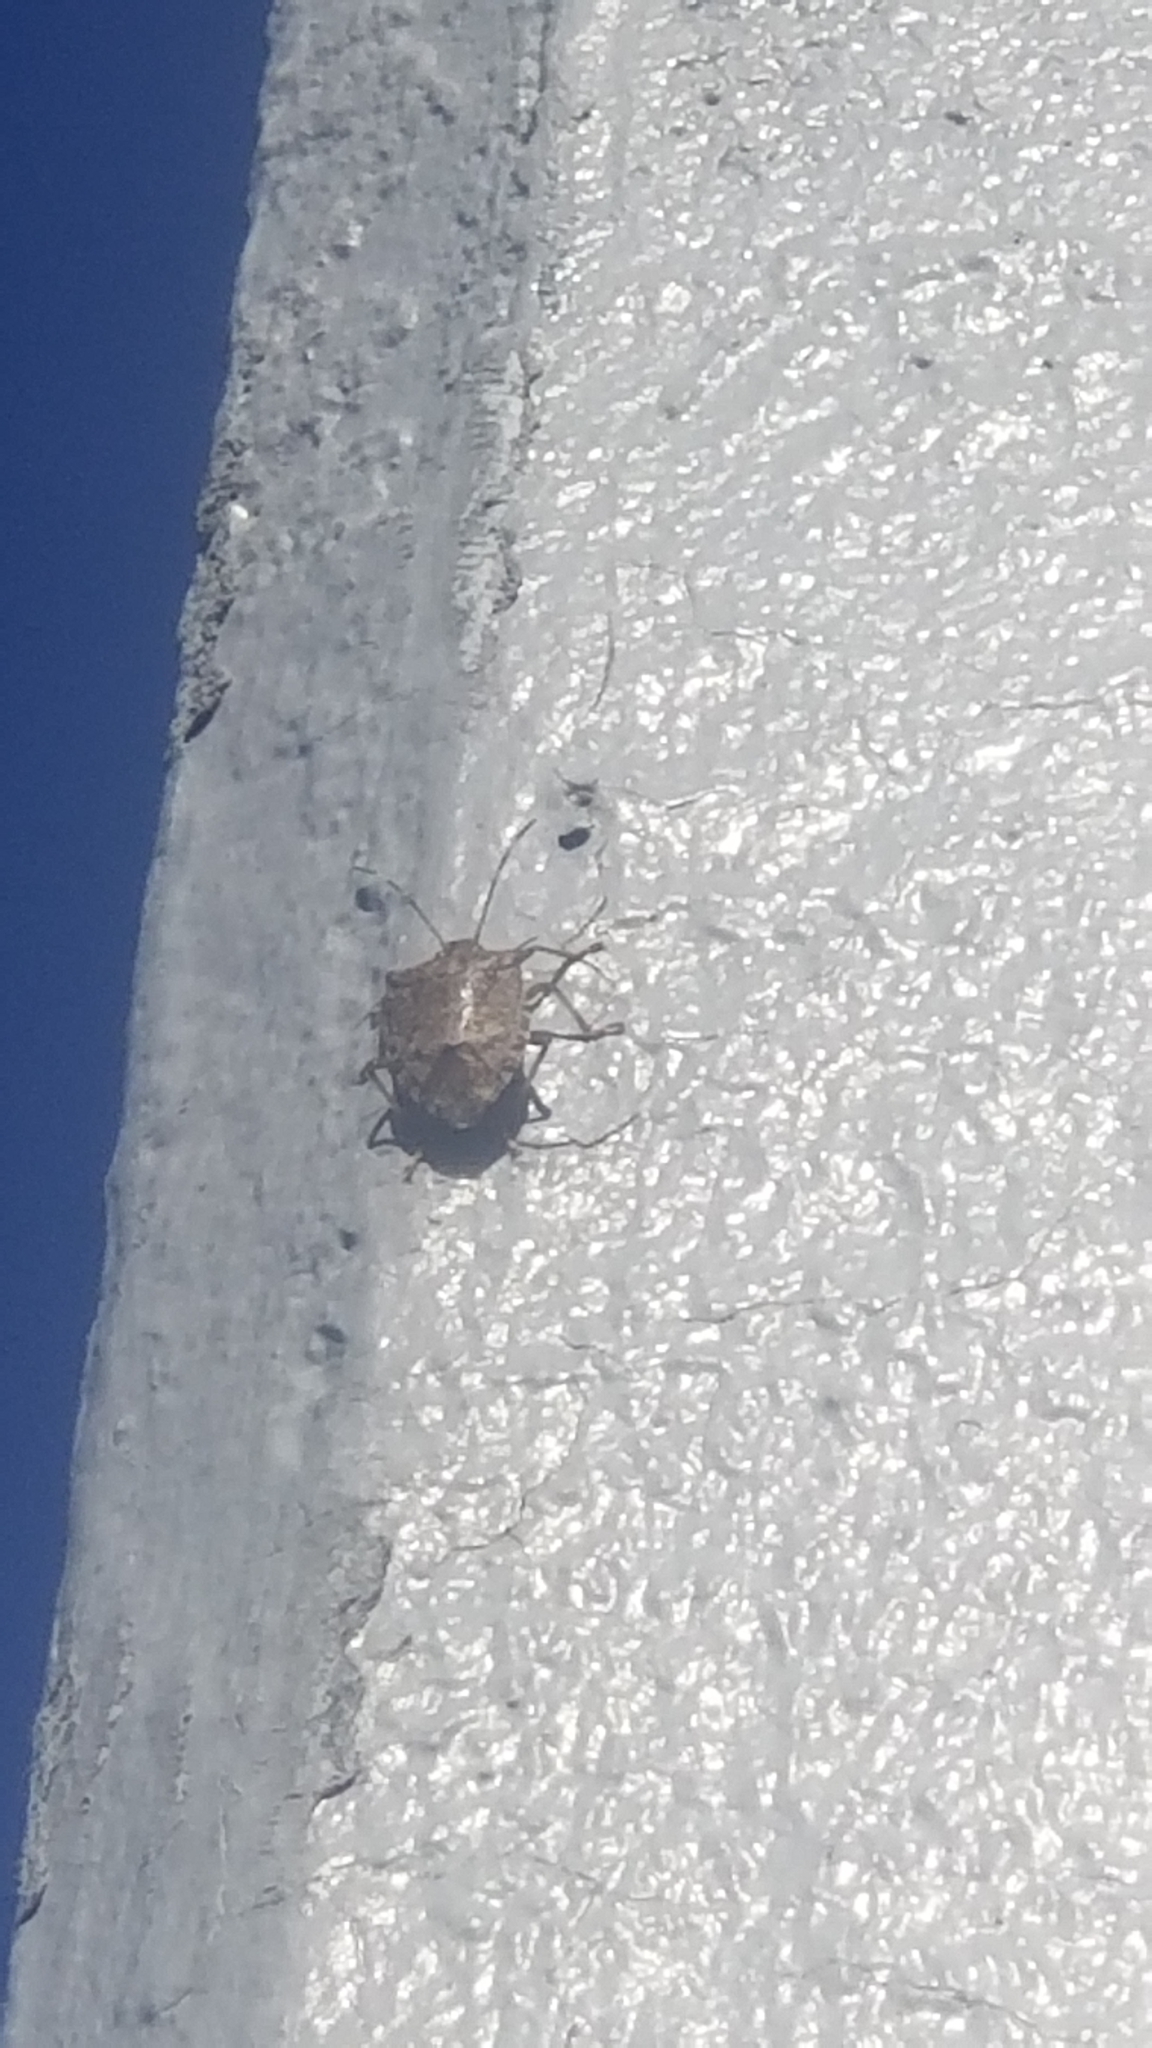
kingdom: Animalia
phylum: Arthropoda
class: Insecta
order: Hemiptera
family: Pentatomidae
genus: Halyomorpha
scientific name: Halyomorpha halys
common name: Brown marmorated stink bug
